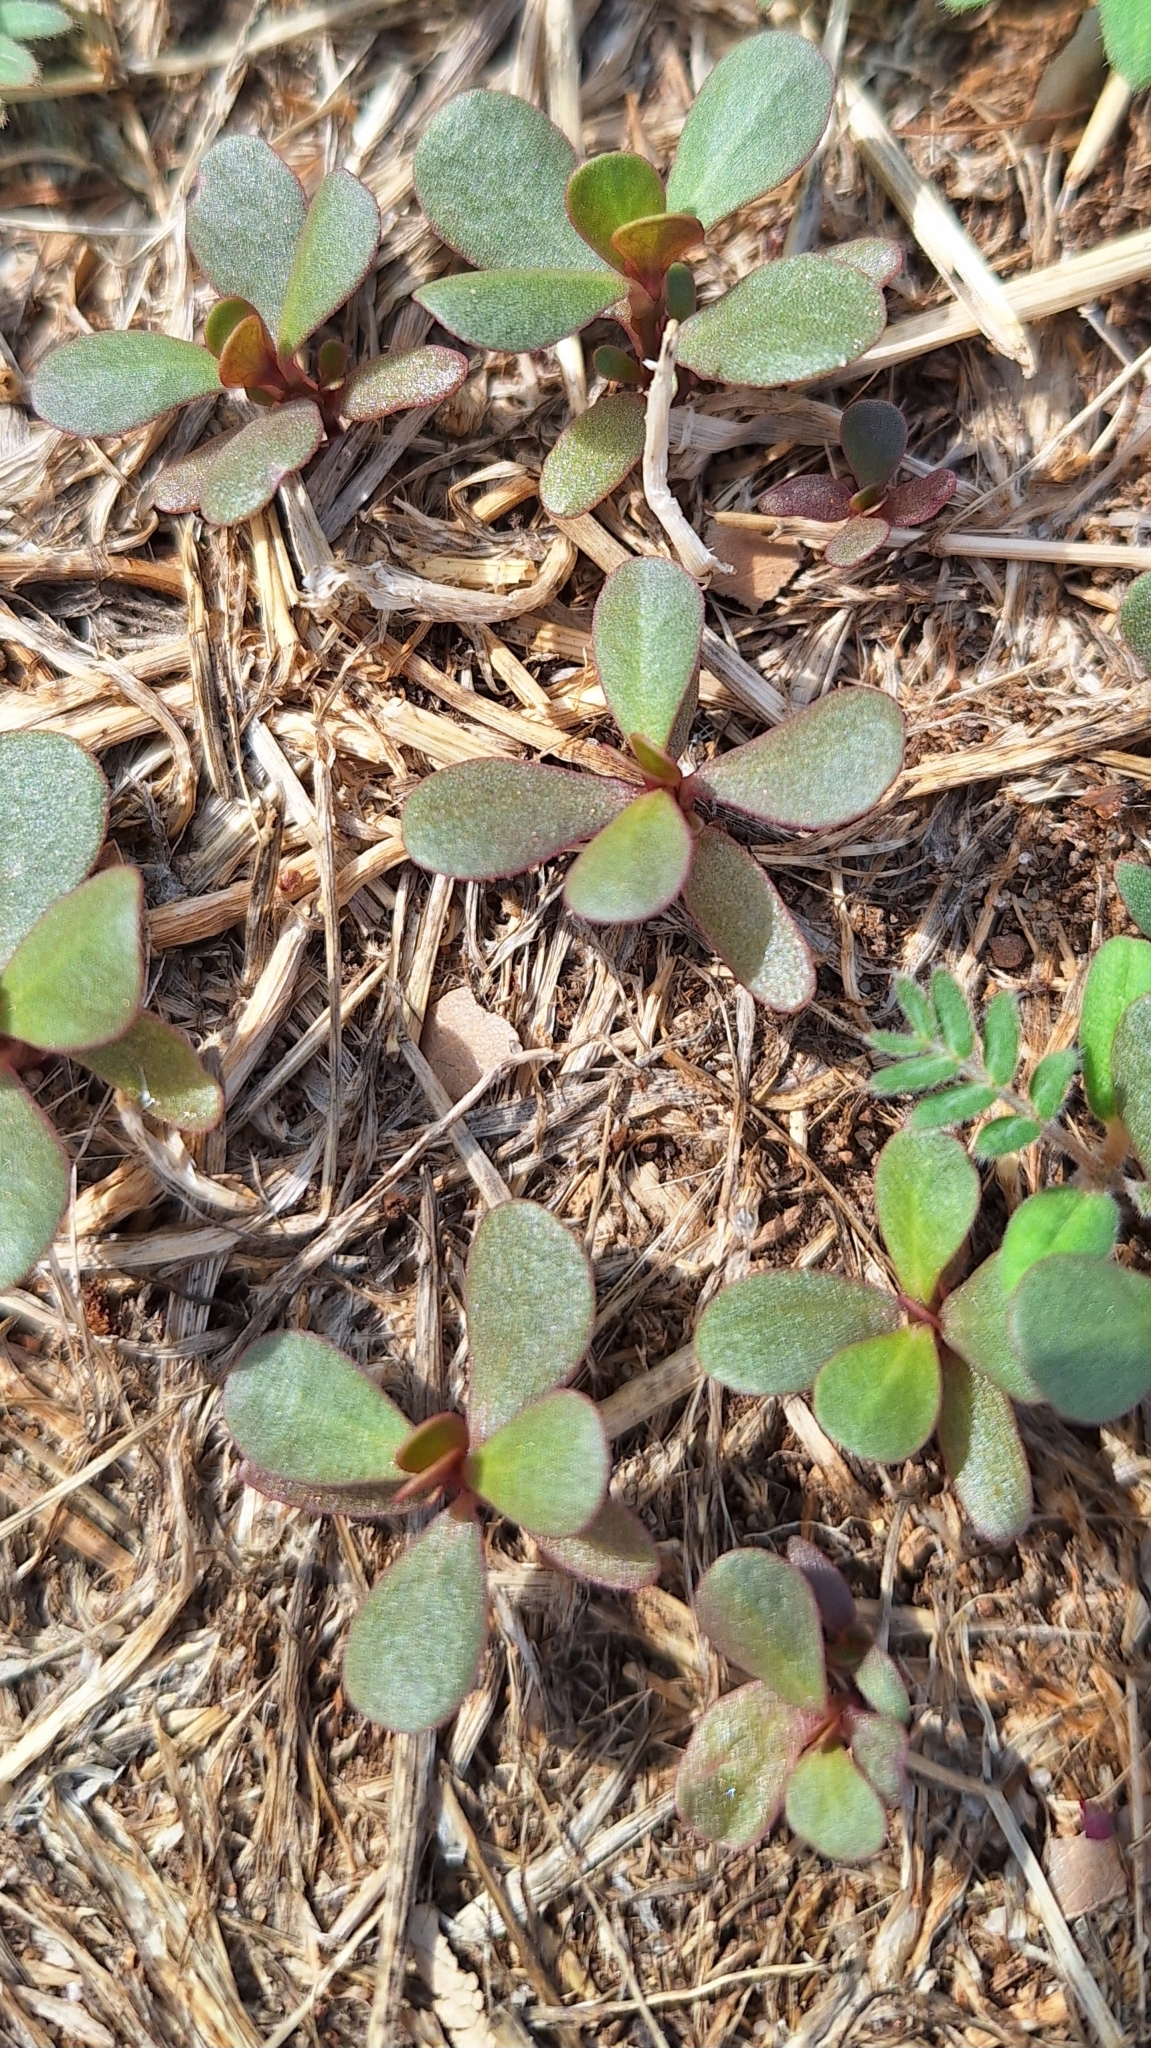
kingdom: Plantae
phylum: Tracheophyta
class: Magnoliopsida
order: Caryophyllales
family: Portulacaceae
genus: Portulaca
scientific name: Portulaca oleracea
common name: Common purslane
